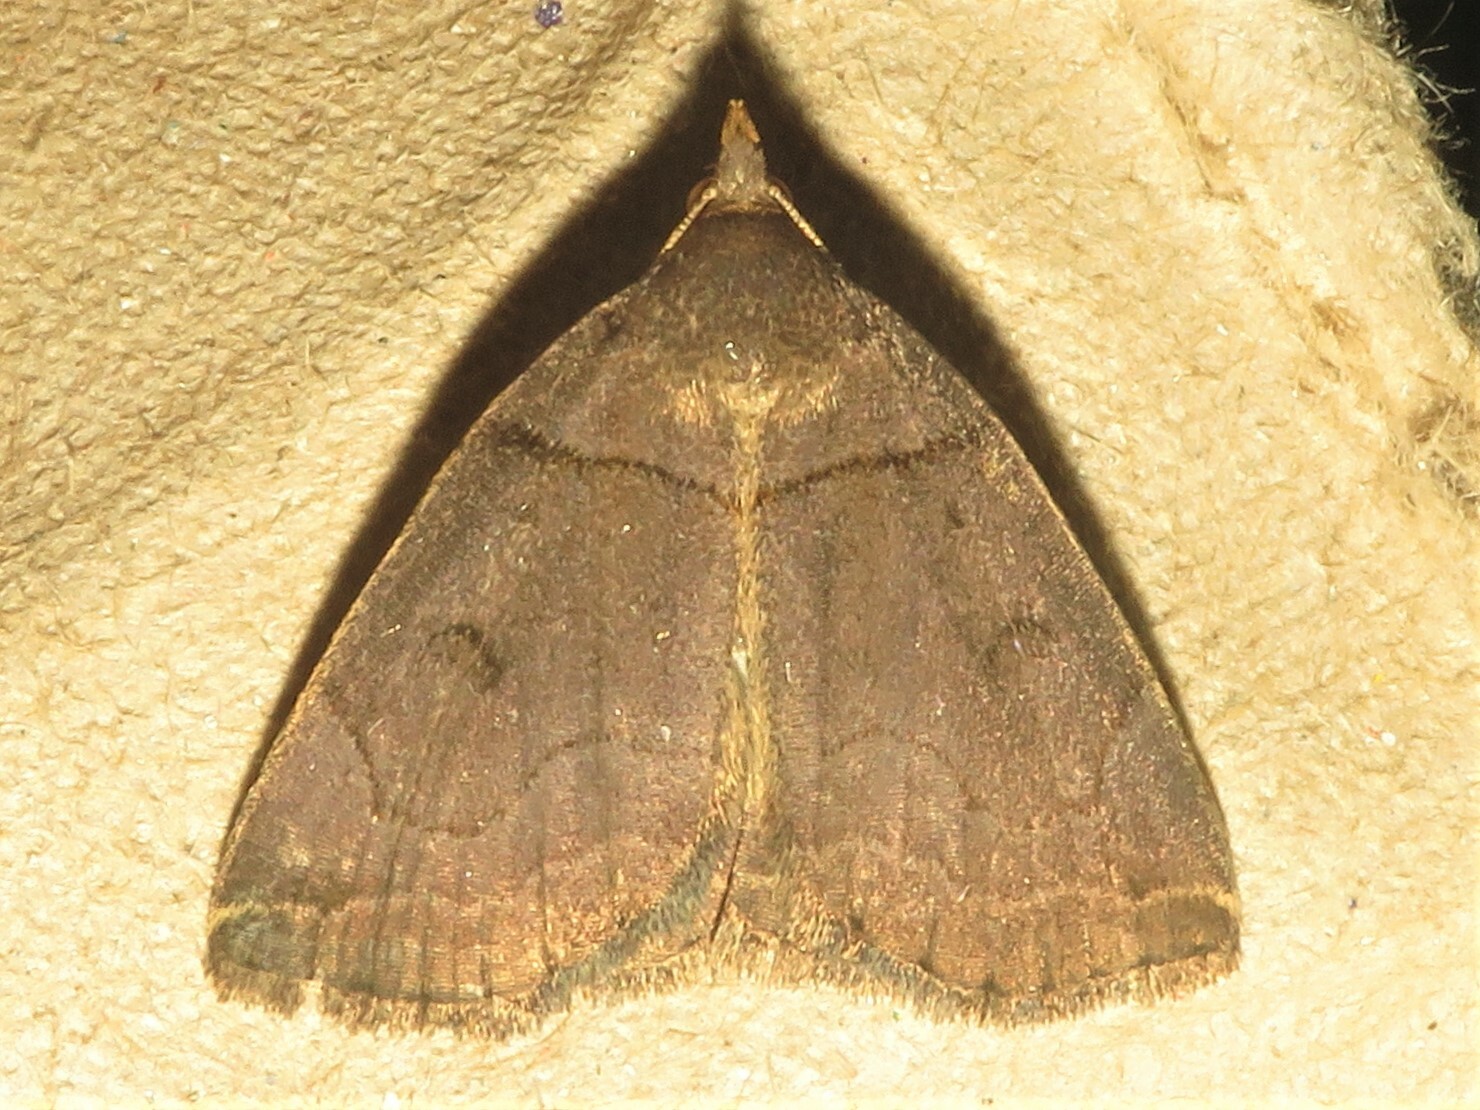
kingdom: Animalia
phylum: Arthropoda
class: Insecta
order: Lepidoptera
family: Erebidae
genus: Zanclognatha
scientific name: Zanclognatha laevigata
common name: Variable fan-foot
